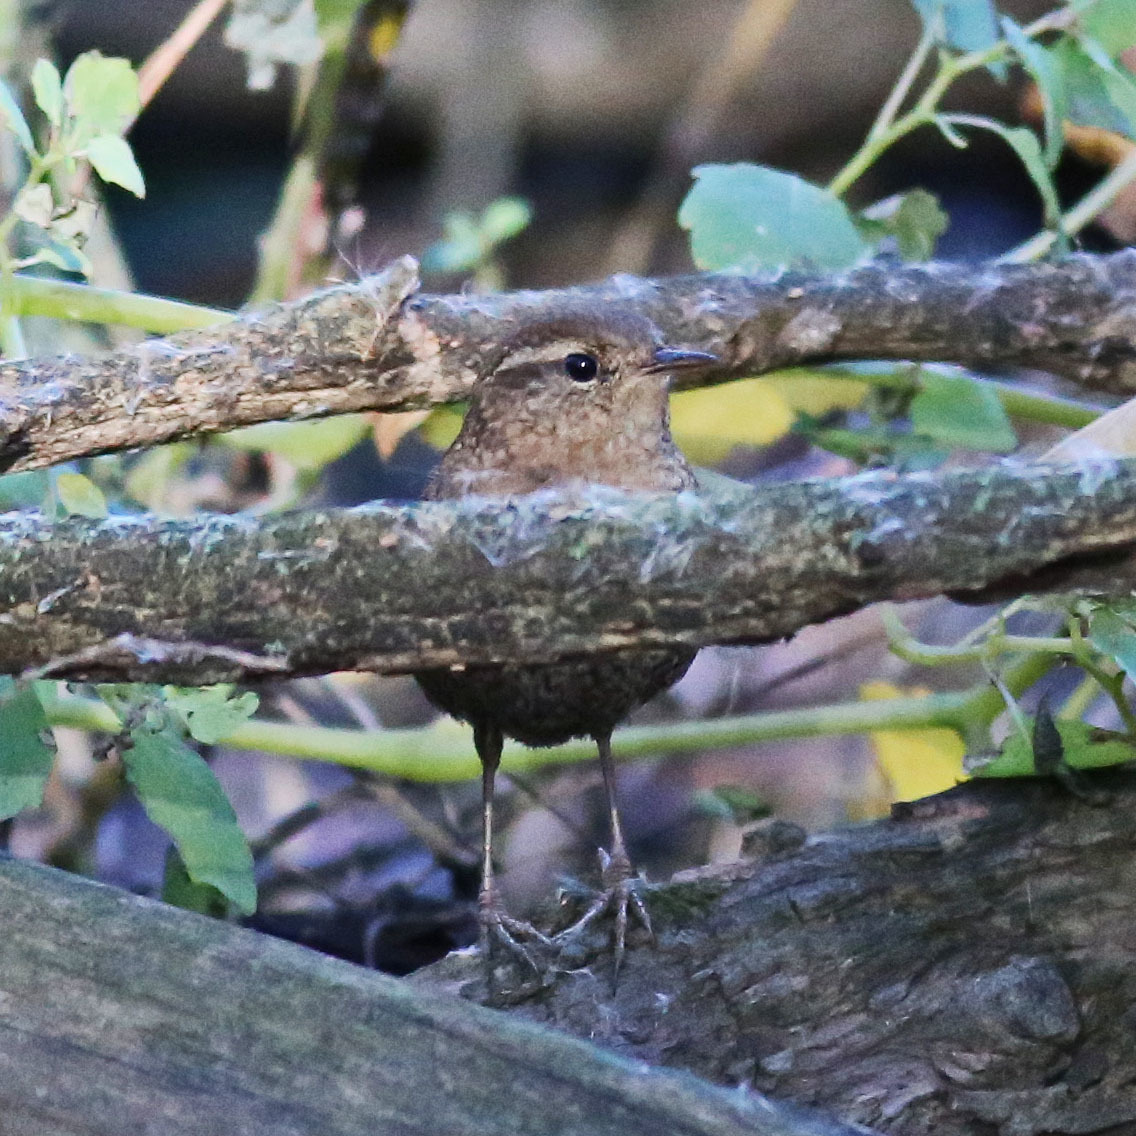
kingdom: Animalia
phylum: Chordata
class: Aves
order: Passeriformes
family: Troglodytidae
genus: Troglodytes
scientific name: Troglodytes hiemalis
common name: Winter wren
